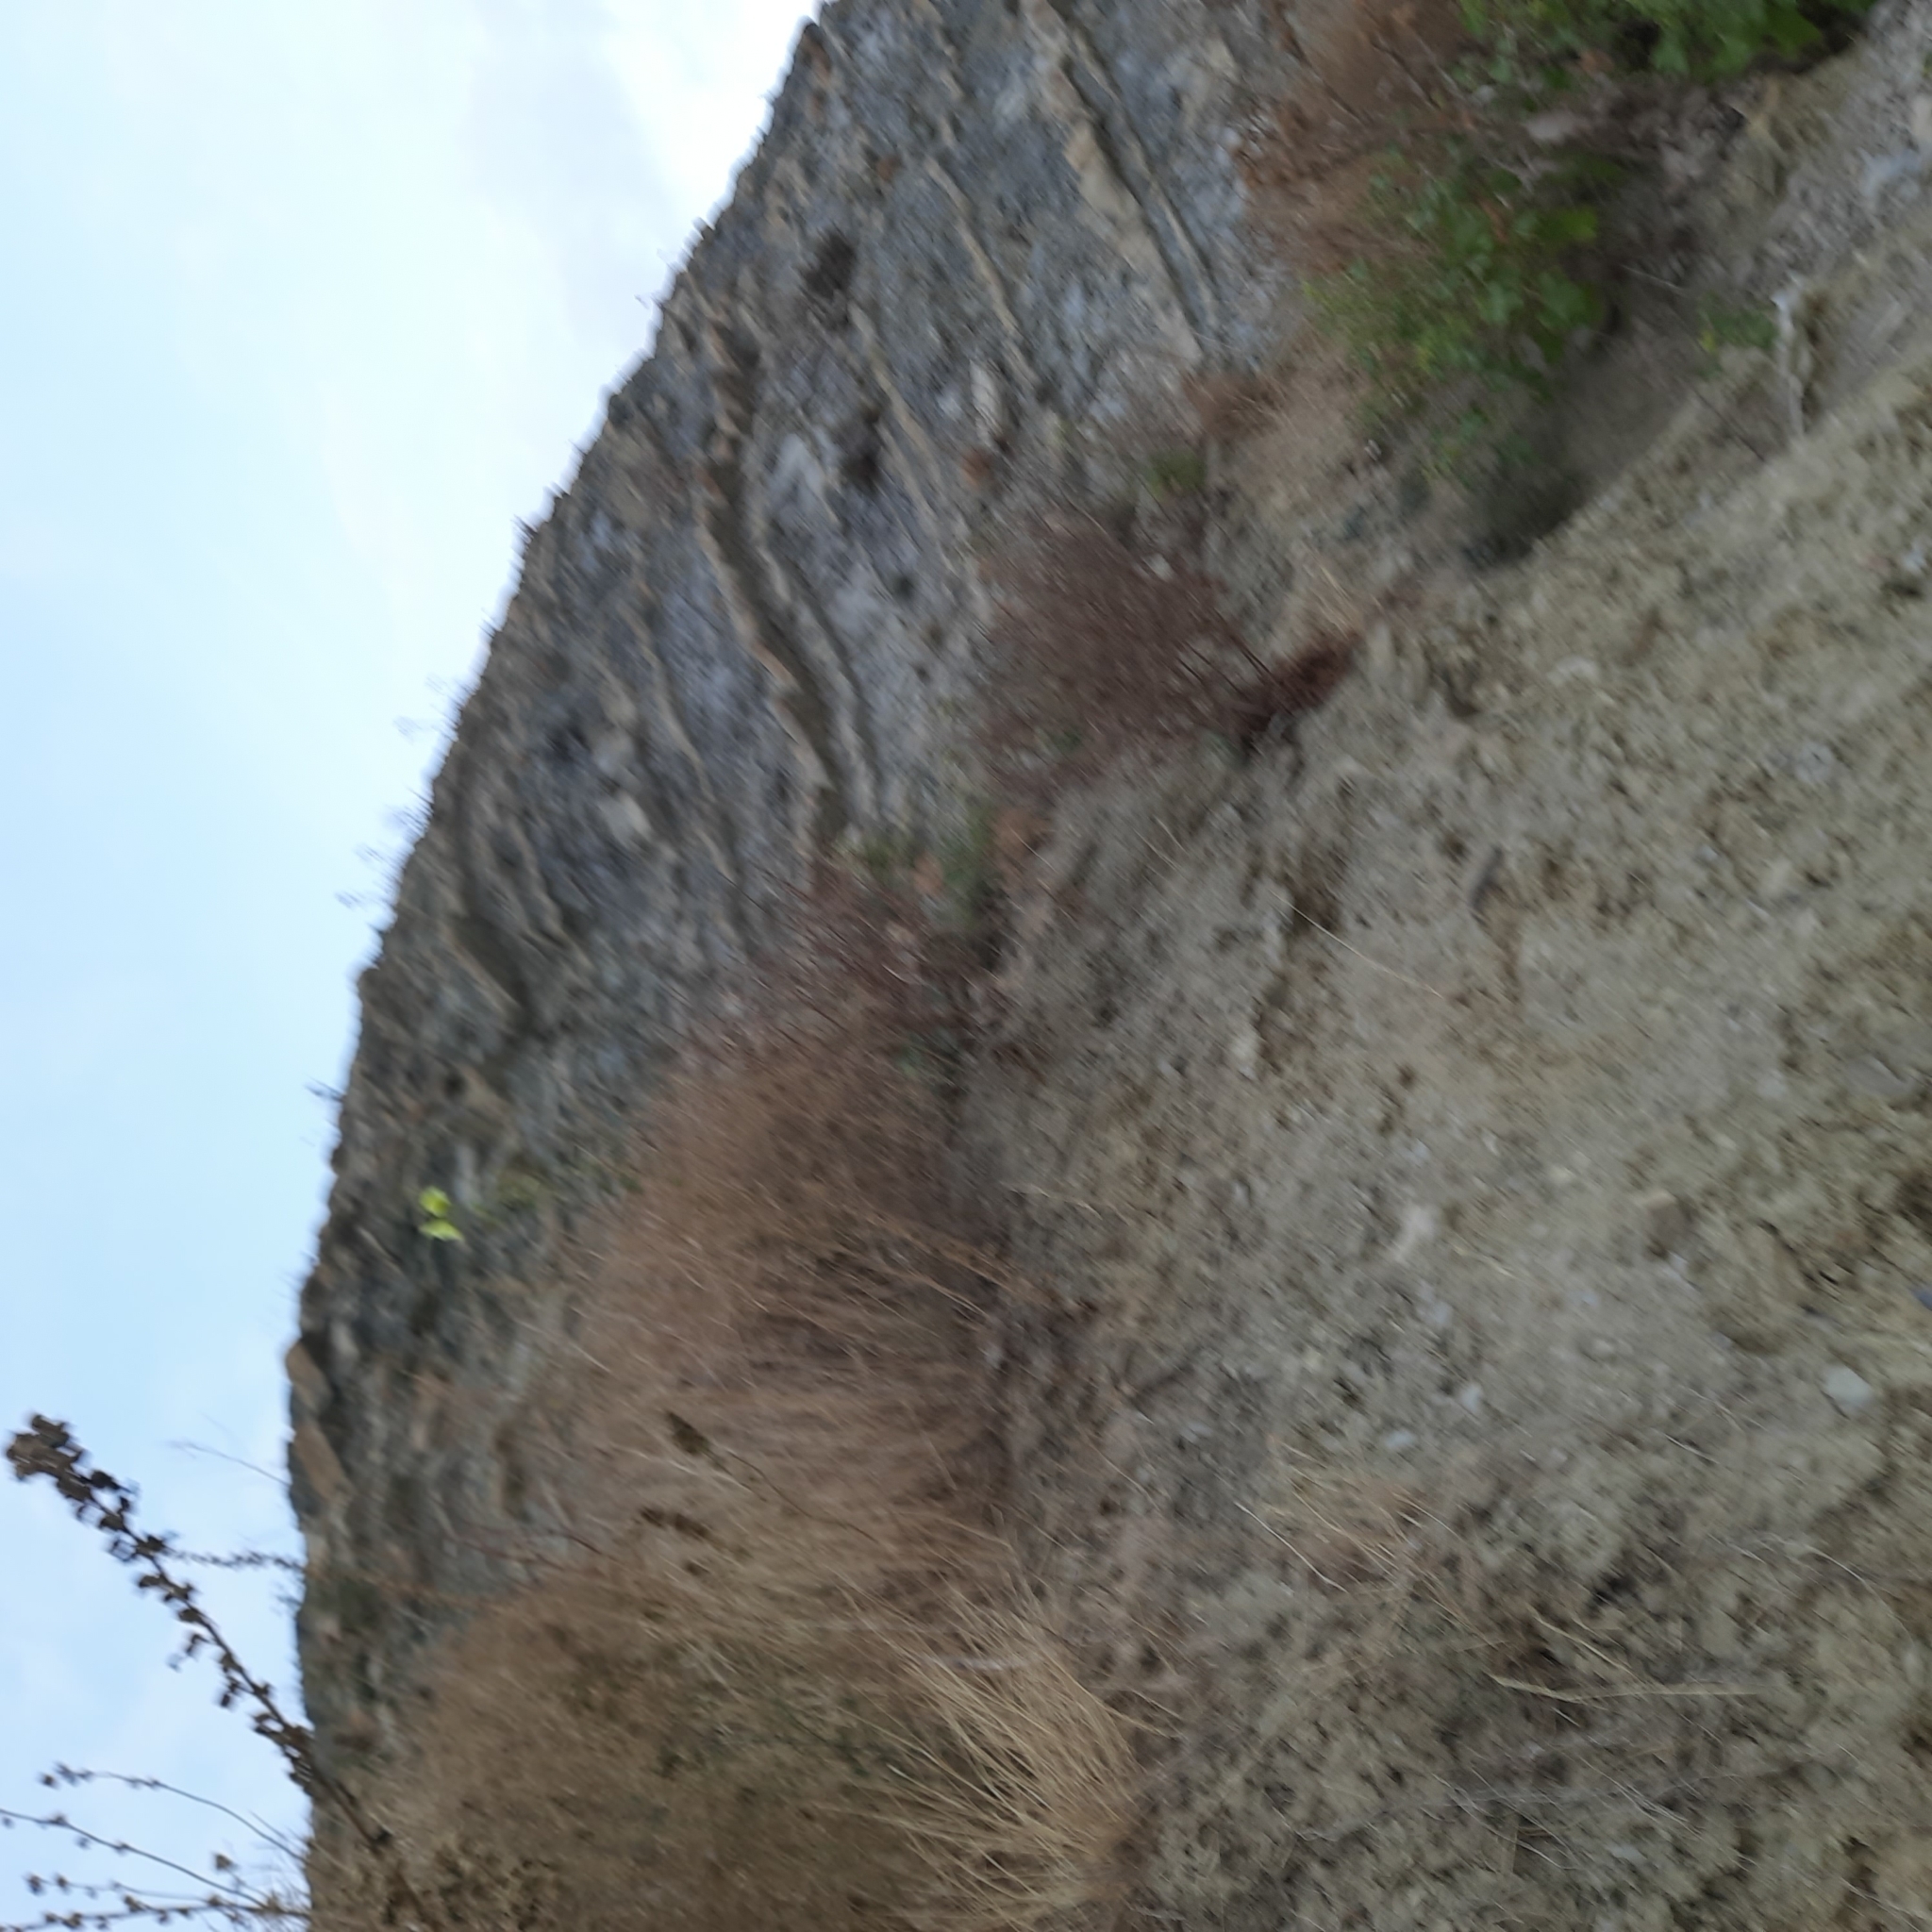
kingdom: Plantae
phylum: Tracheophyta
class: Magnoliopsida
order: Malvales
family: Malvaceae
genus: Alcea
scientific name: Alcea rugosa
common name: Russian hollyhock
